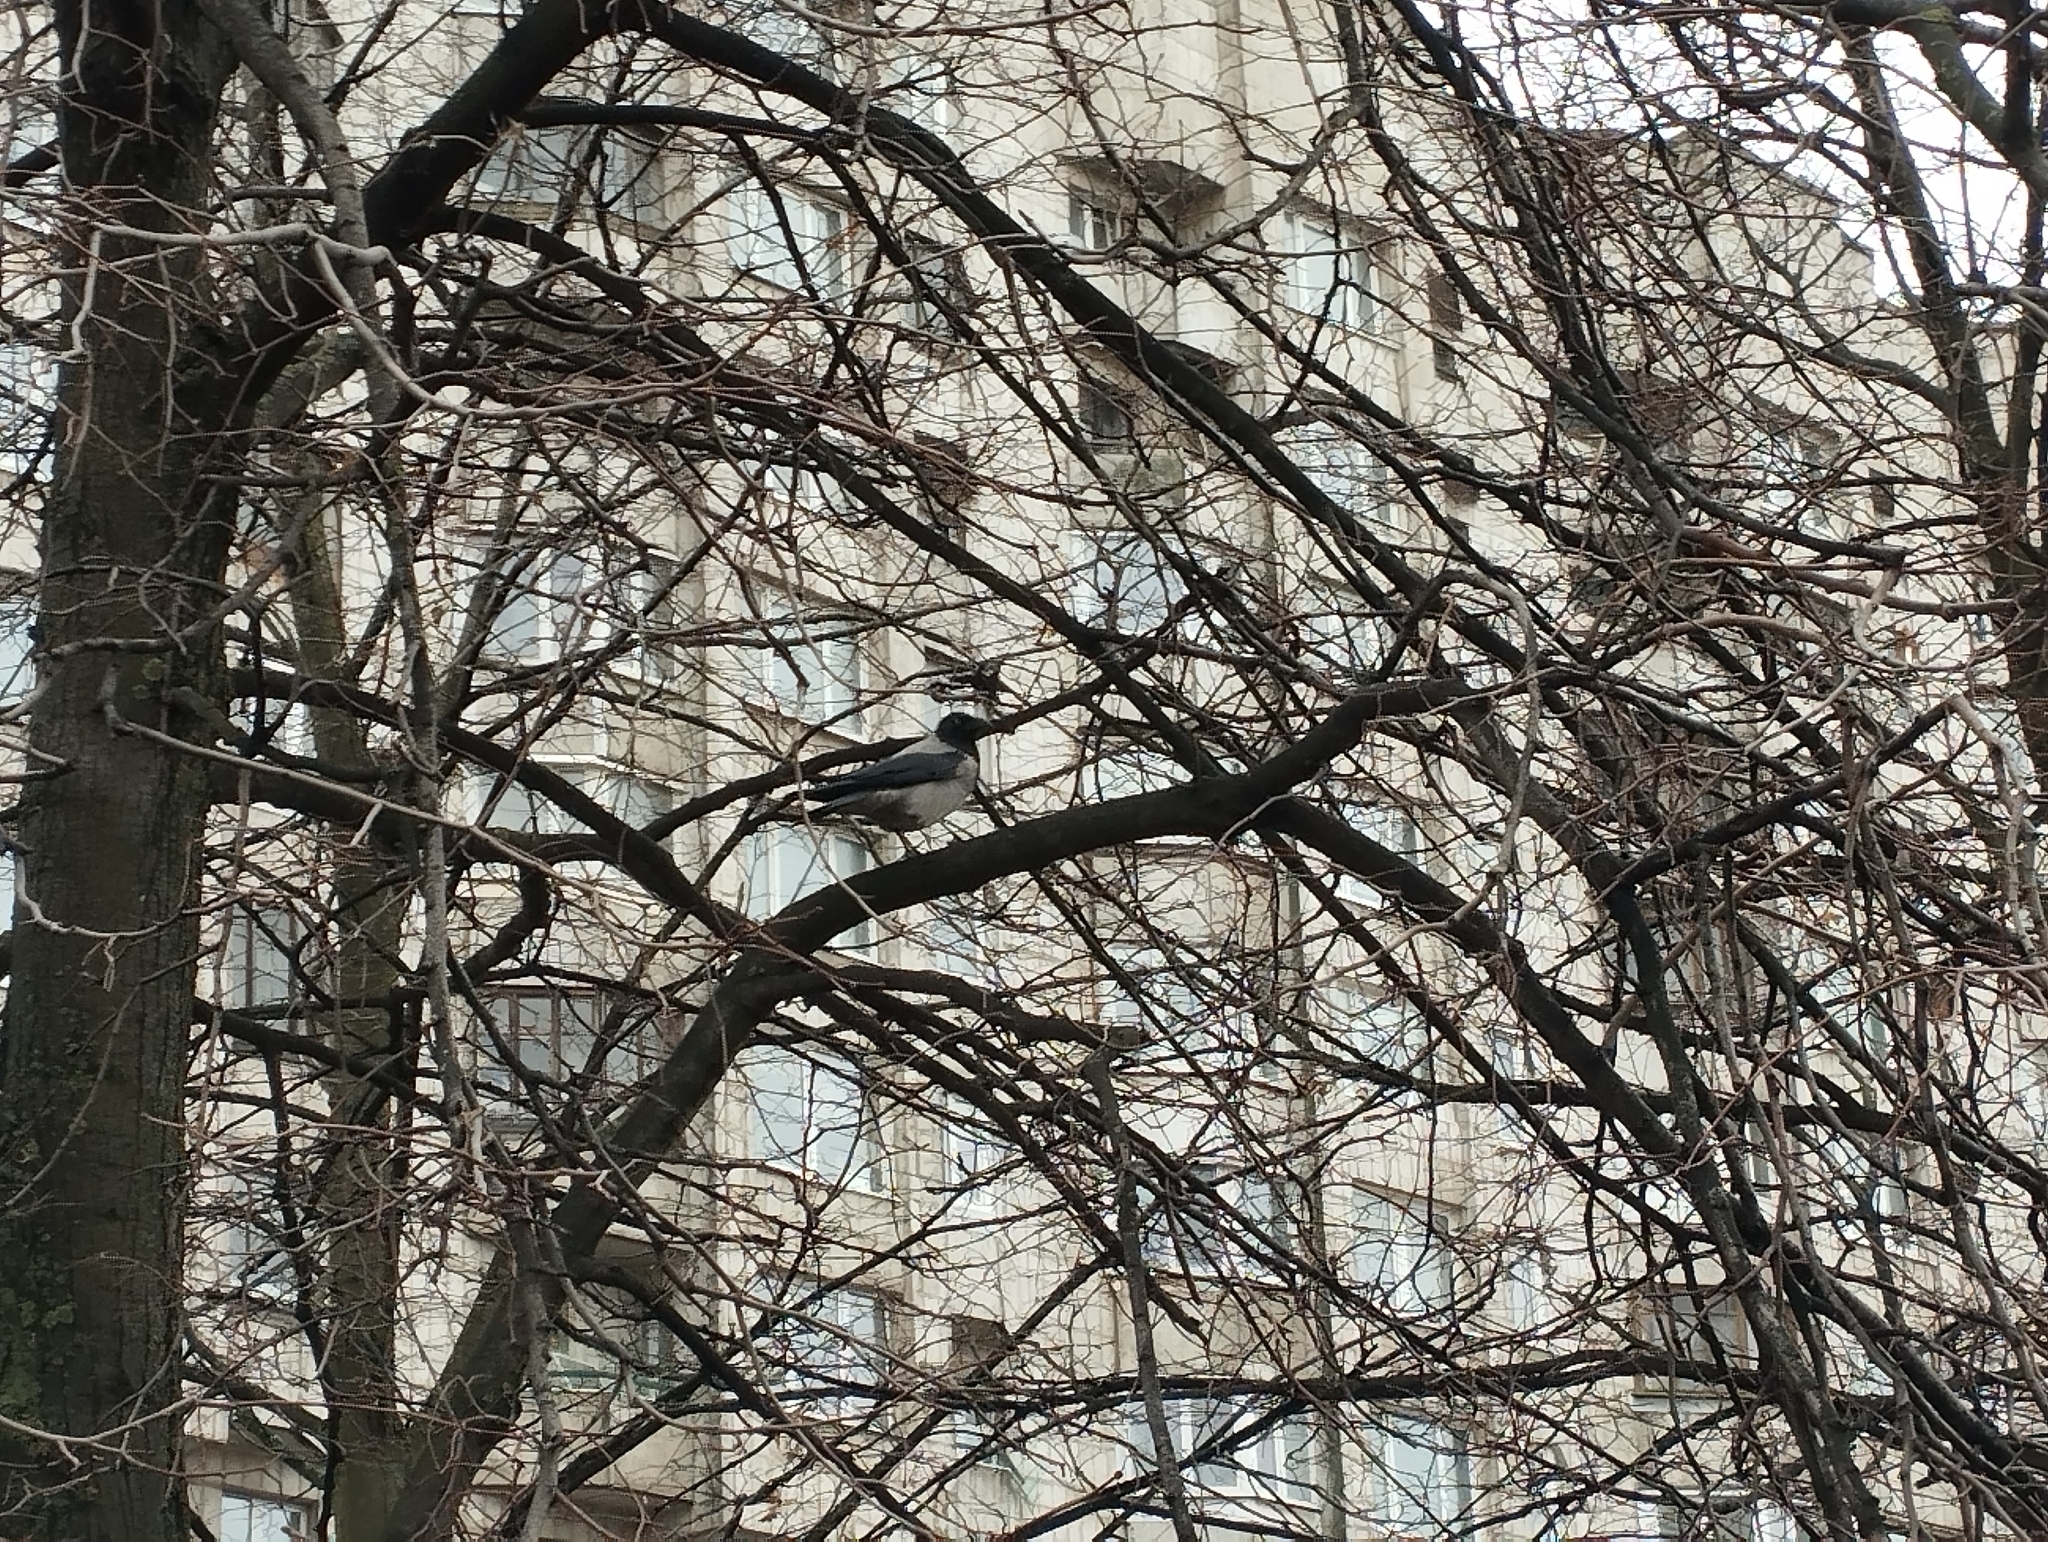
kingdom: Animalia
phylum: Chordata
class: Aves
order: Passeriformes
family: Corvidae
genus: Corvus
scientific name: Corvus cornix
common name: Hooded crow
